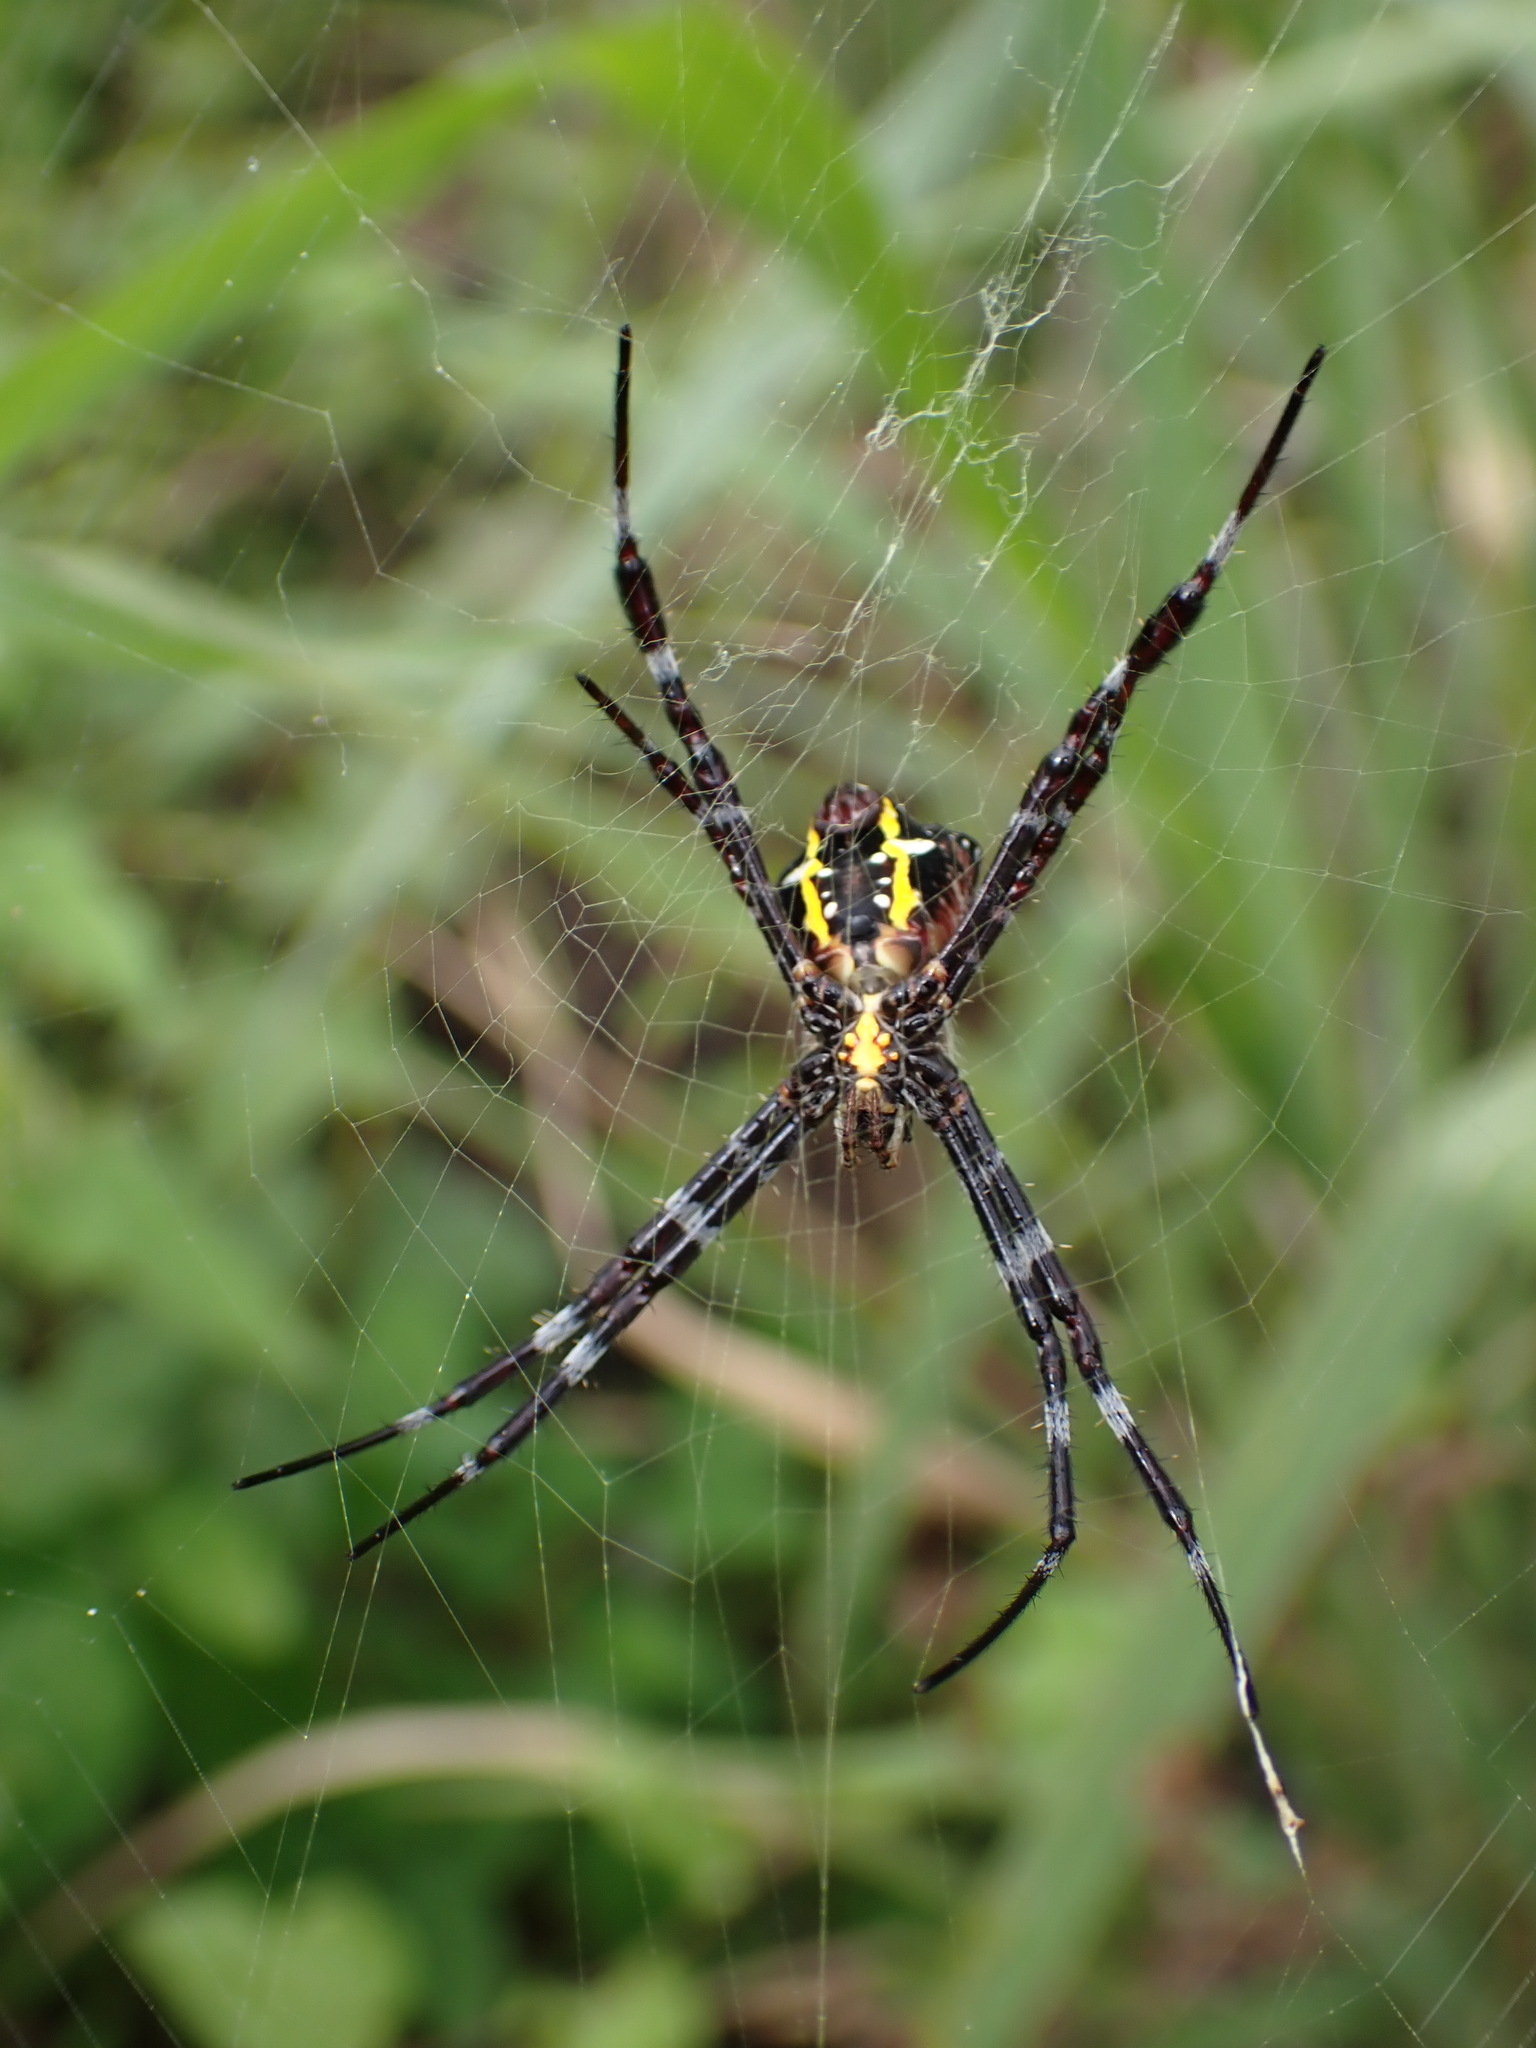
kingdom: Animalia
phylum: Arthropoda
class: Arachnida
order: Araneae
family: Araneidae
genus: Argiope
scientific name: Argiope appensa
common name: Garden spider
